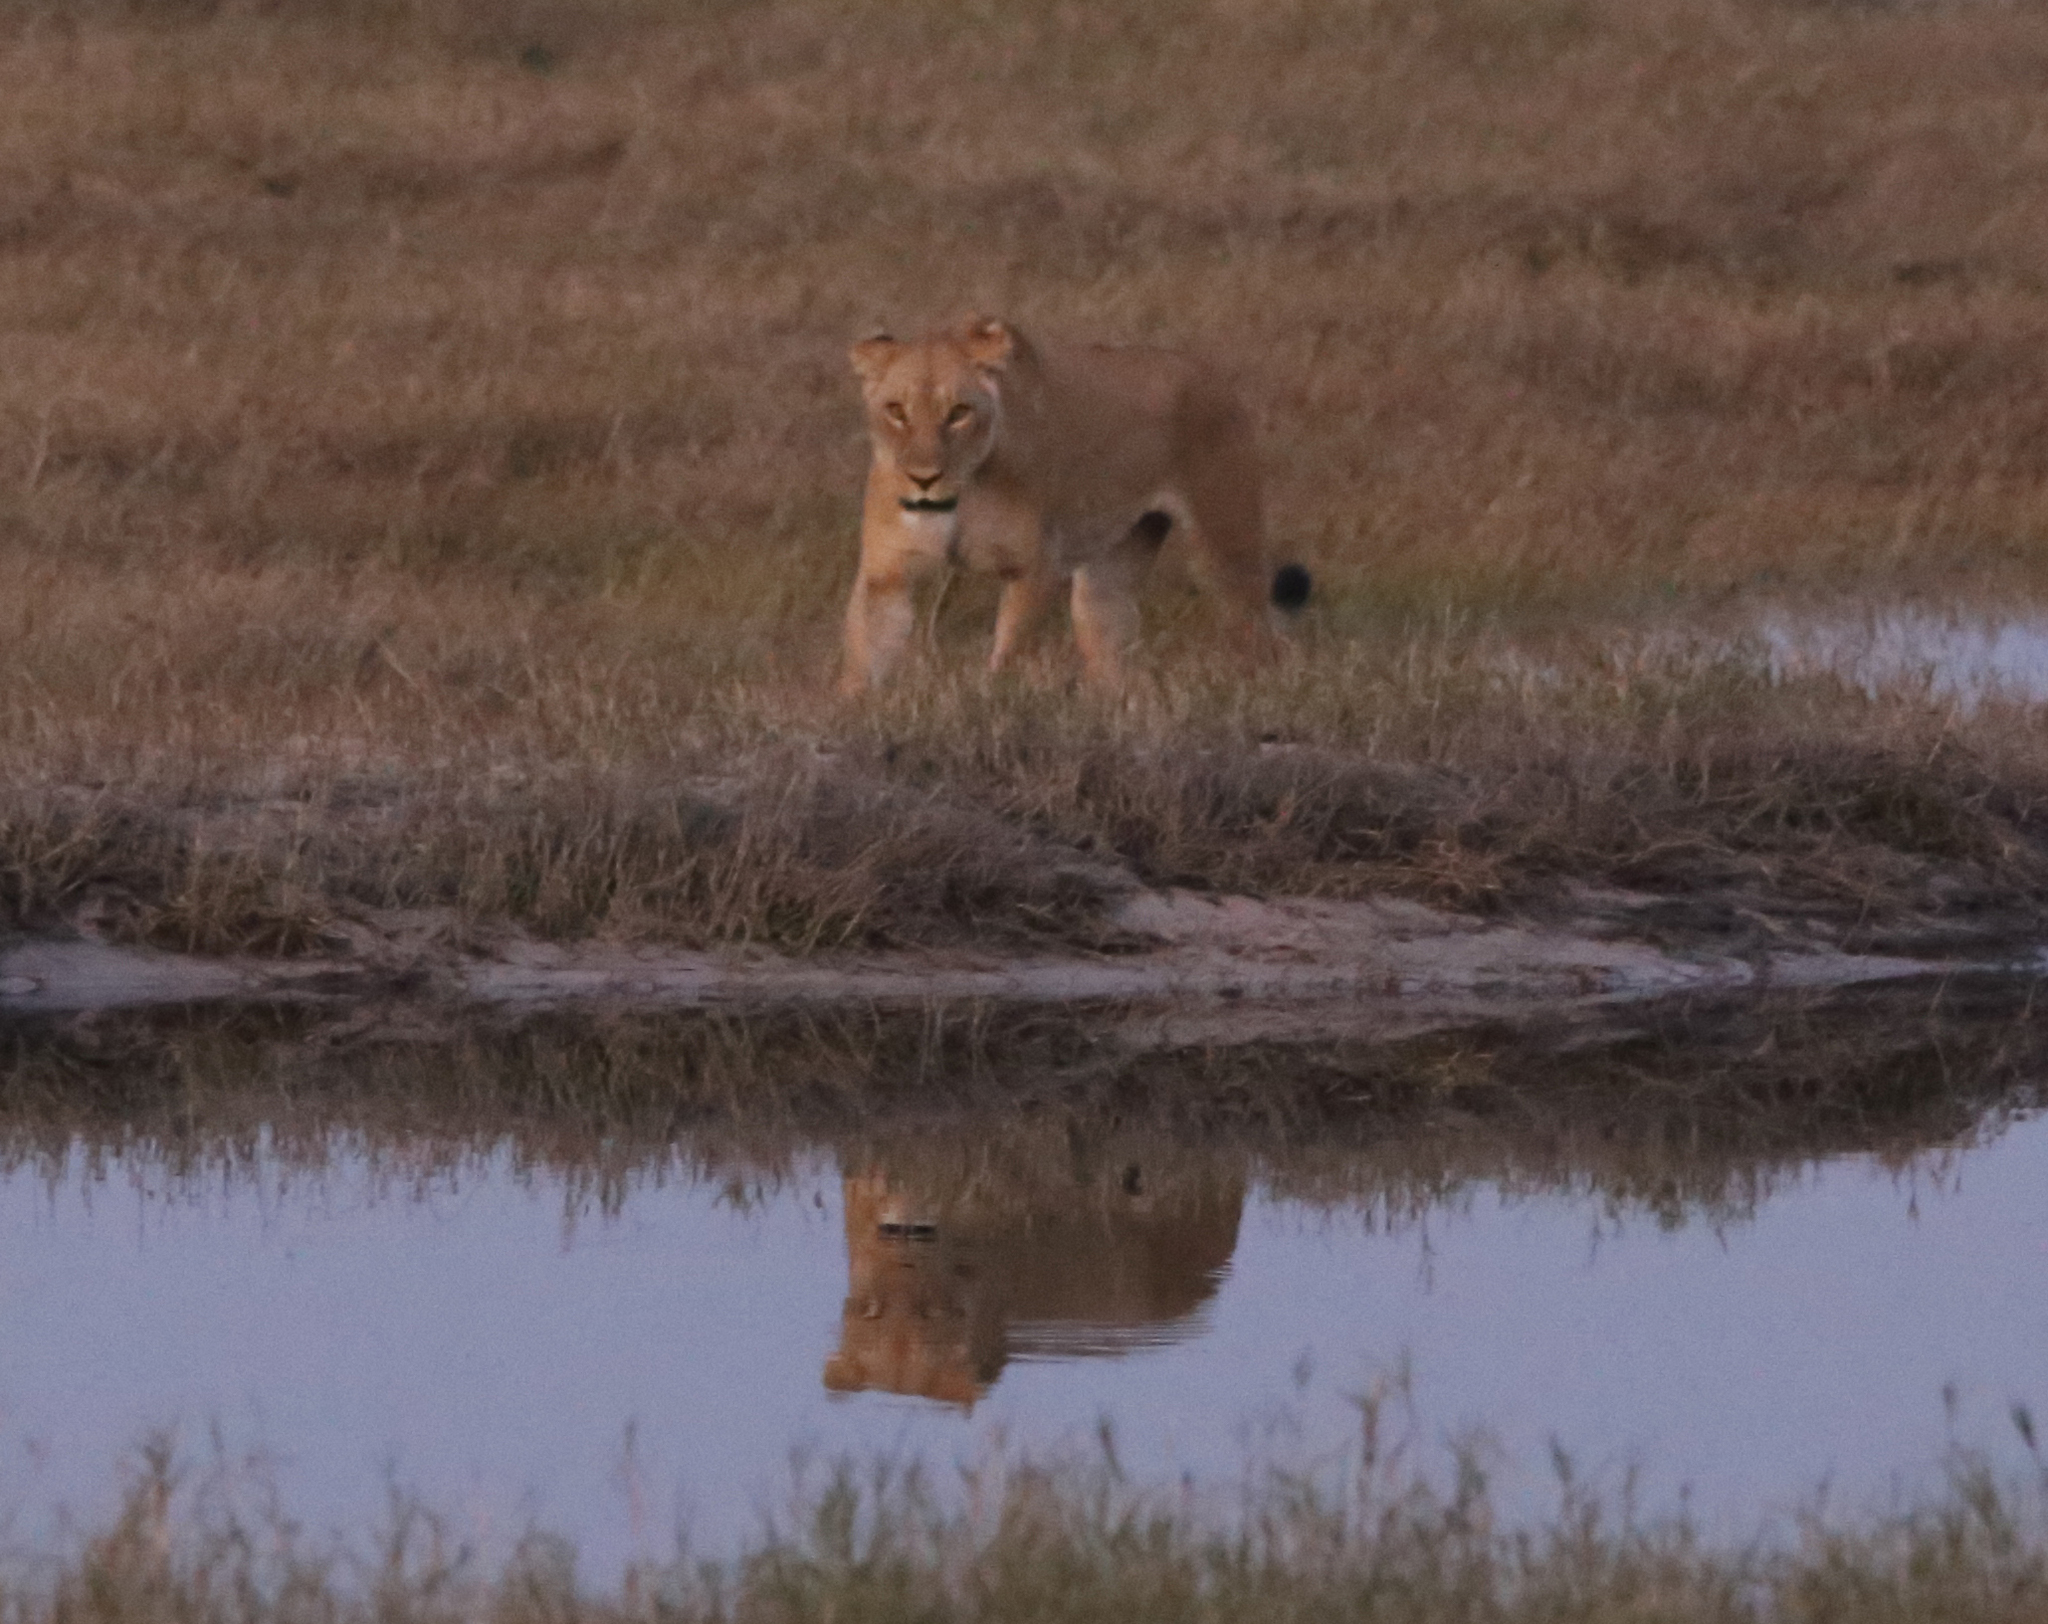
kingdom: Animalia
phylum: Chordata
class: Mammalia
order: Carnivora
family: Felidae
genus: Panthera
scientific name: Panthera leo
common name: Lion
